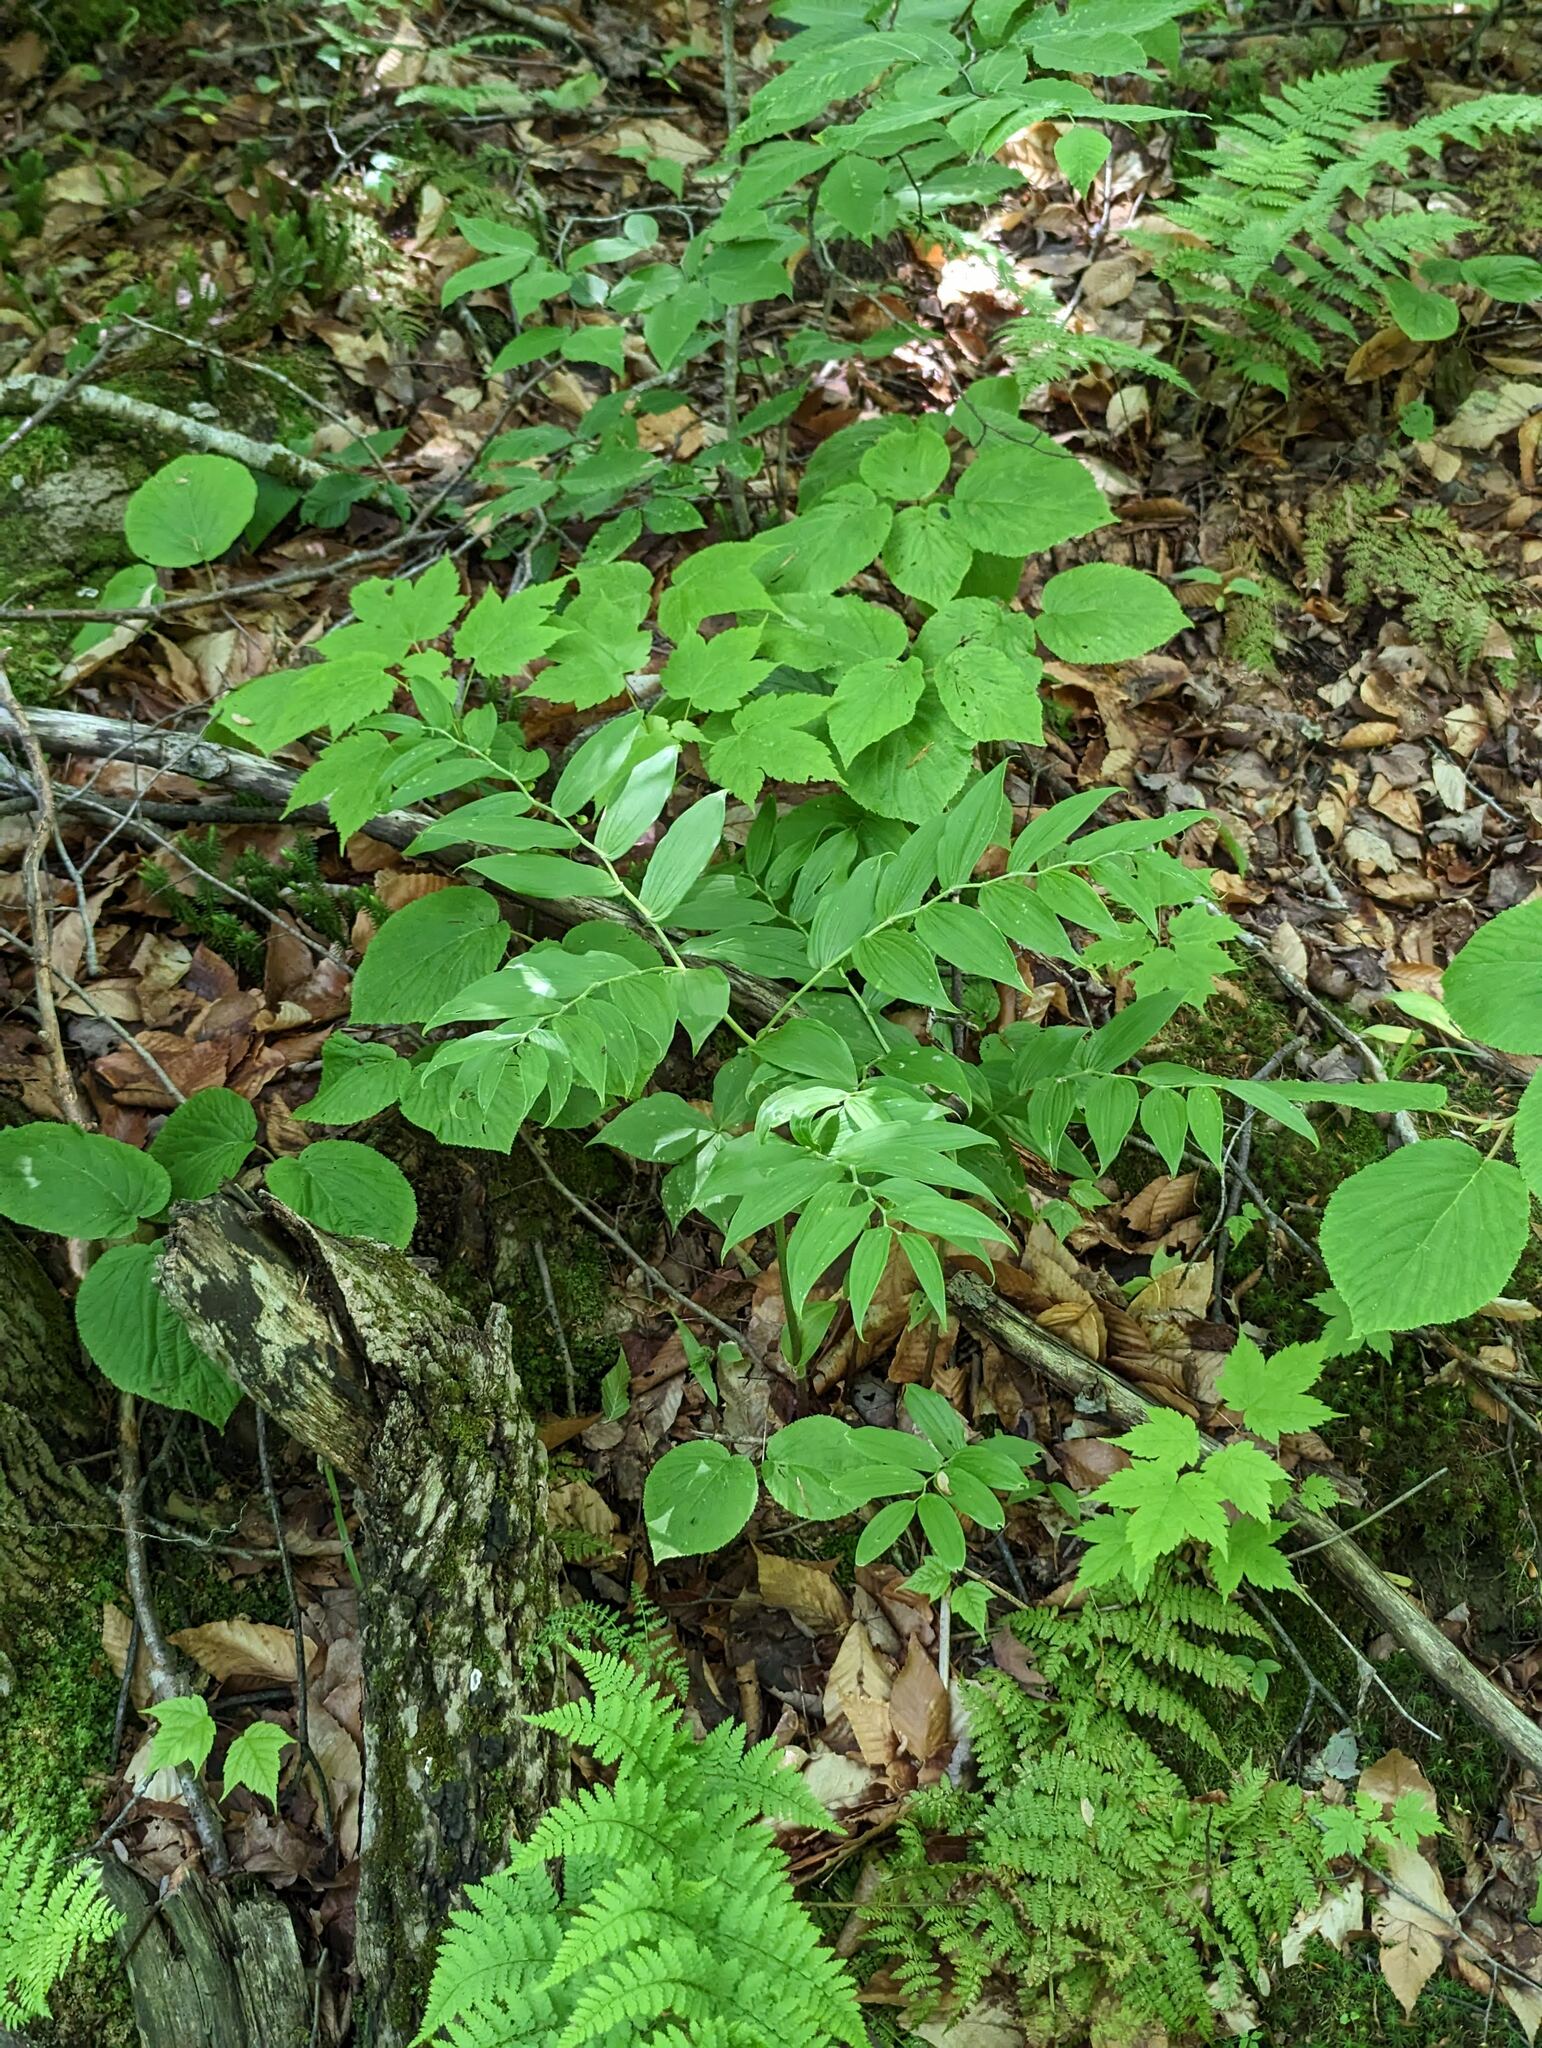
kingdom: Plantae
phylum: Tracheophyta
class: Liliopsida
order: Liliales
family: Liliaceae
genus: Streptopus
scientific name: Streptopus lanceolatus
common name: Rose mandarin
